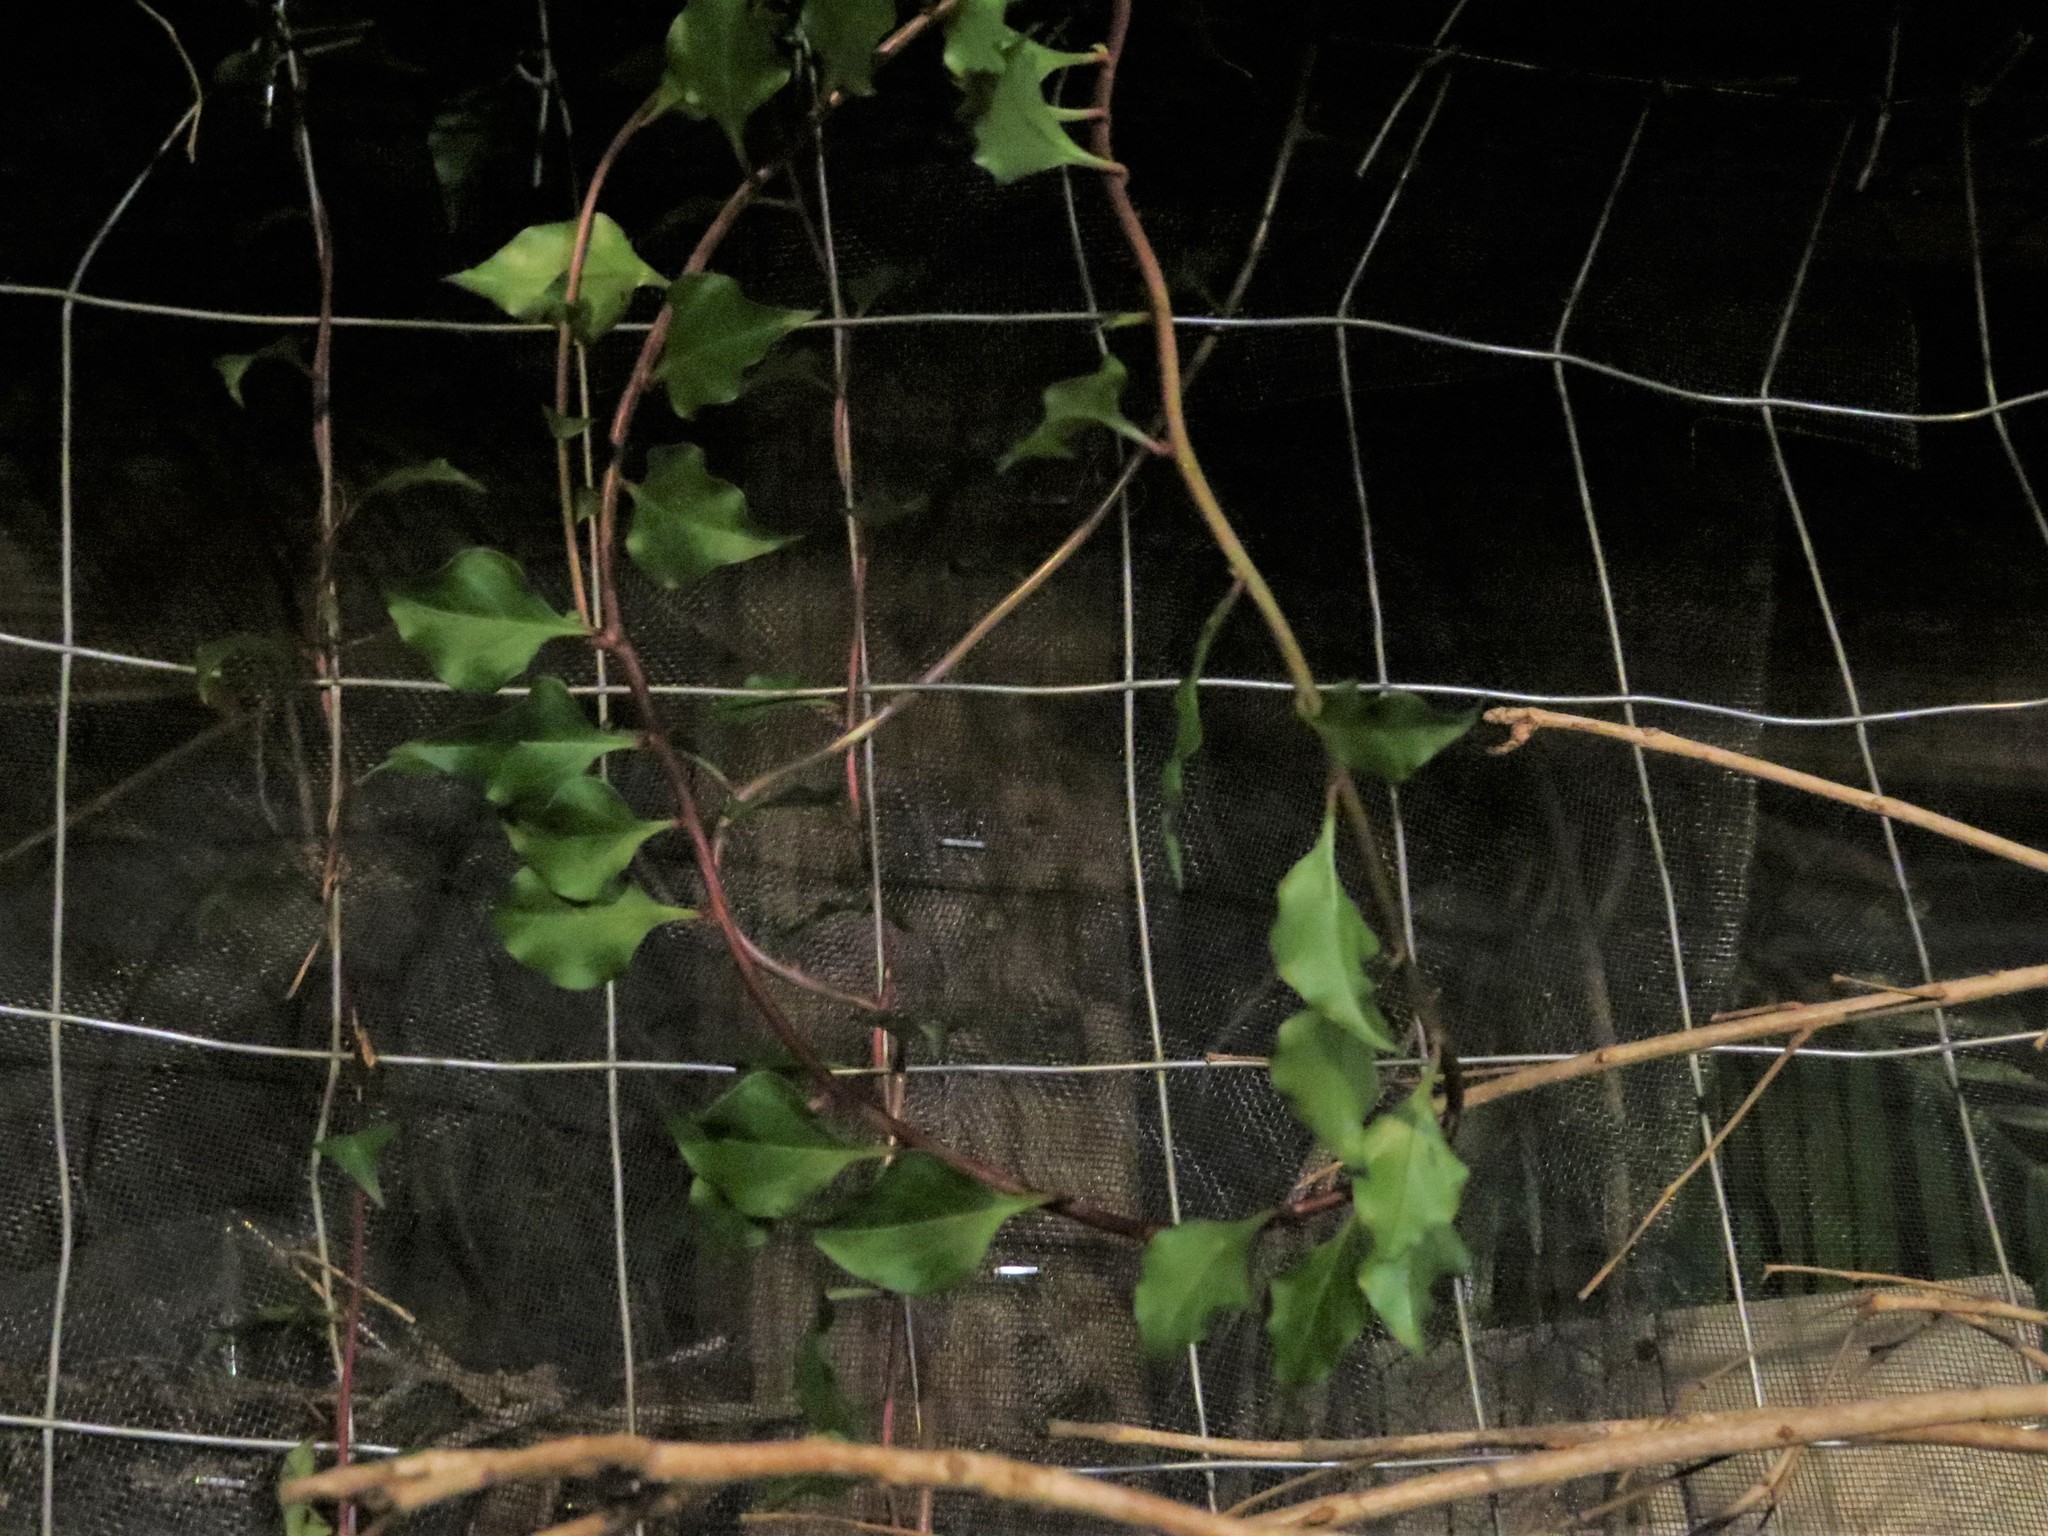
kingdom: Plantae
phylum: Tracheophyta
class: Magnoliopsida
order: Caryophyllales
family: Basellaceae
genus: Anredera
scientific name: Anredera vesicaria
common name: Sacasile
